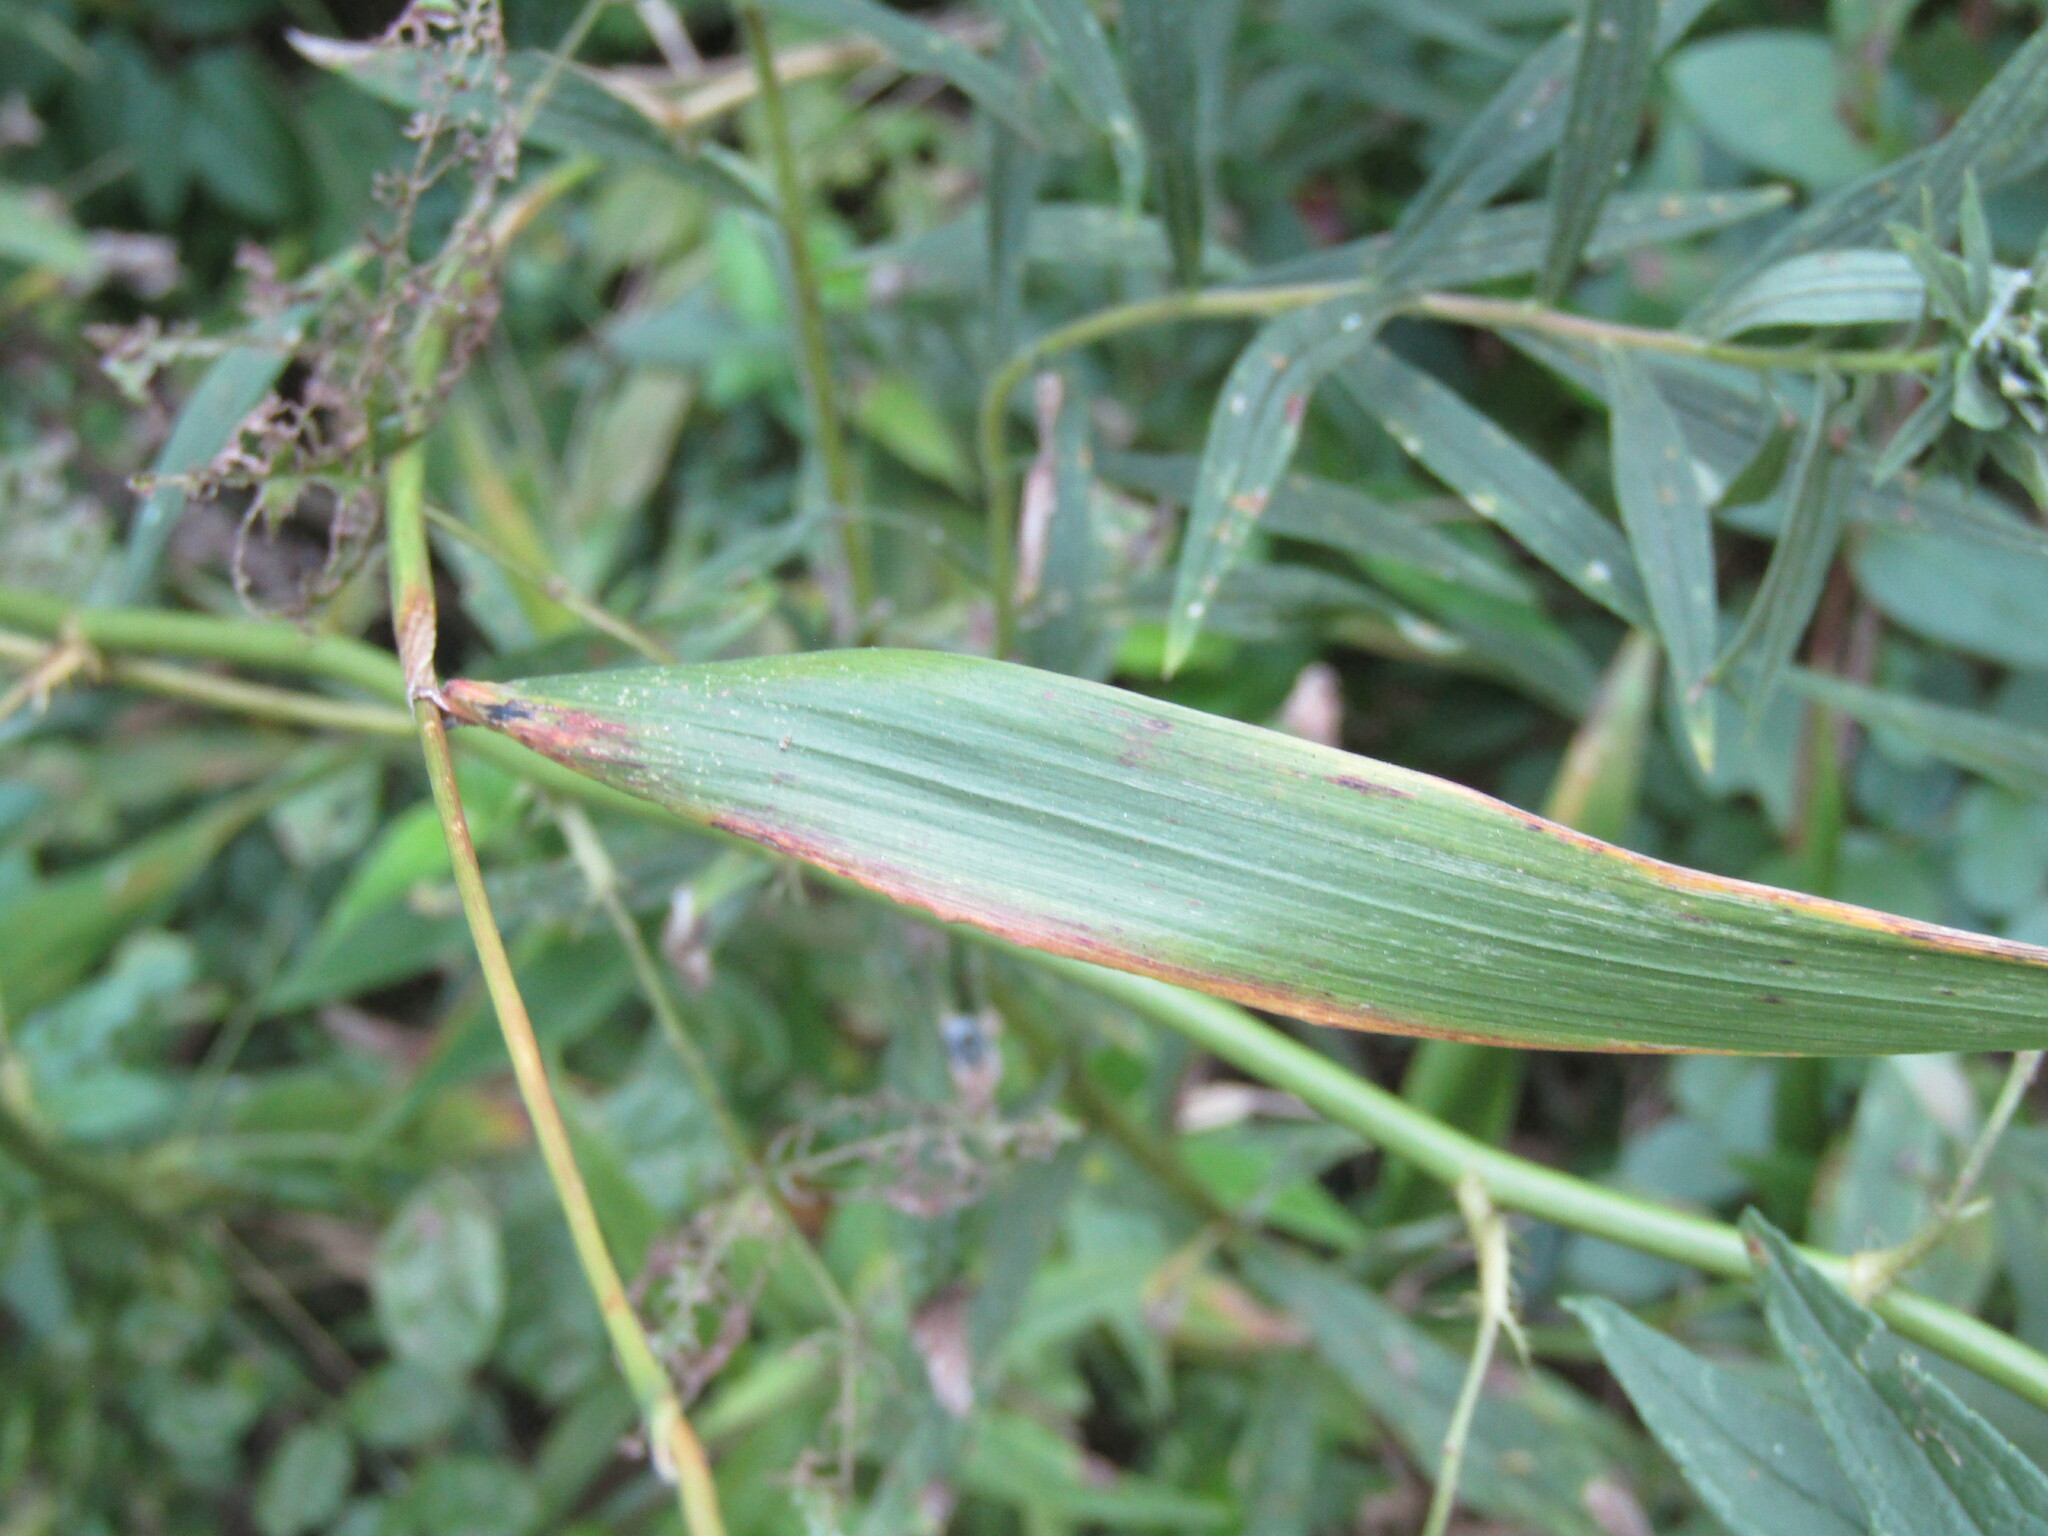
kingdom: Plantae
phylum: Tracheophyta
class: Liliopsida
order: Poales
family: Poaceae
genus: Elymus
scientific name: Elymus riparius
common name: Eastern riverbank wild rye
